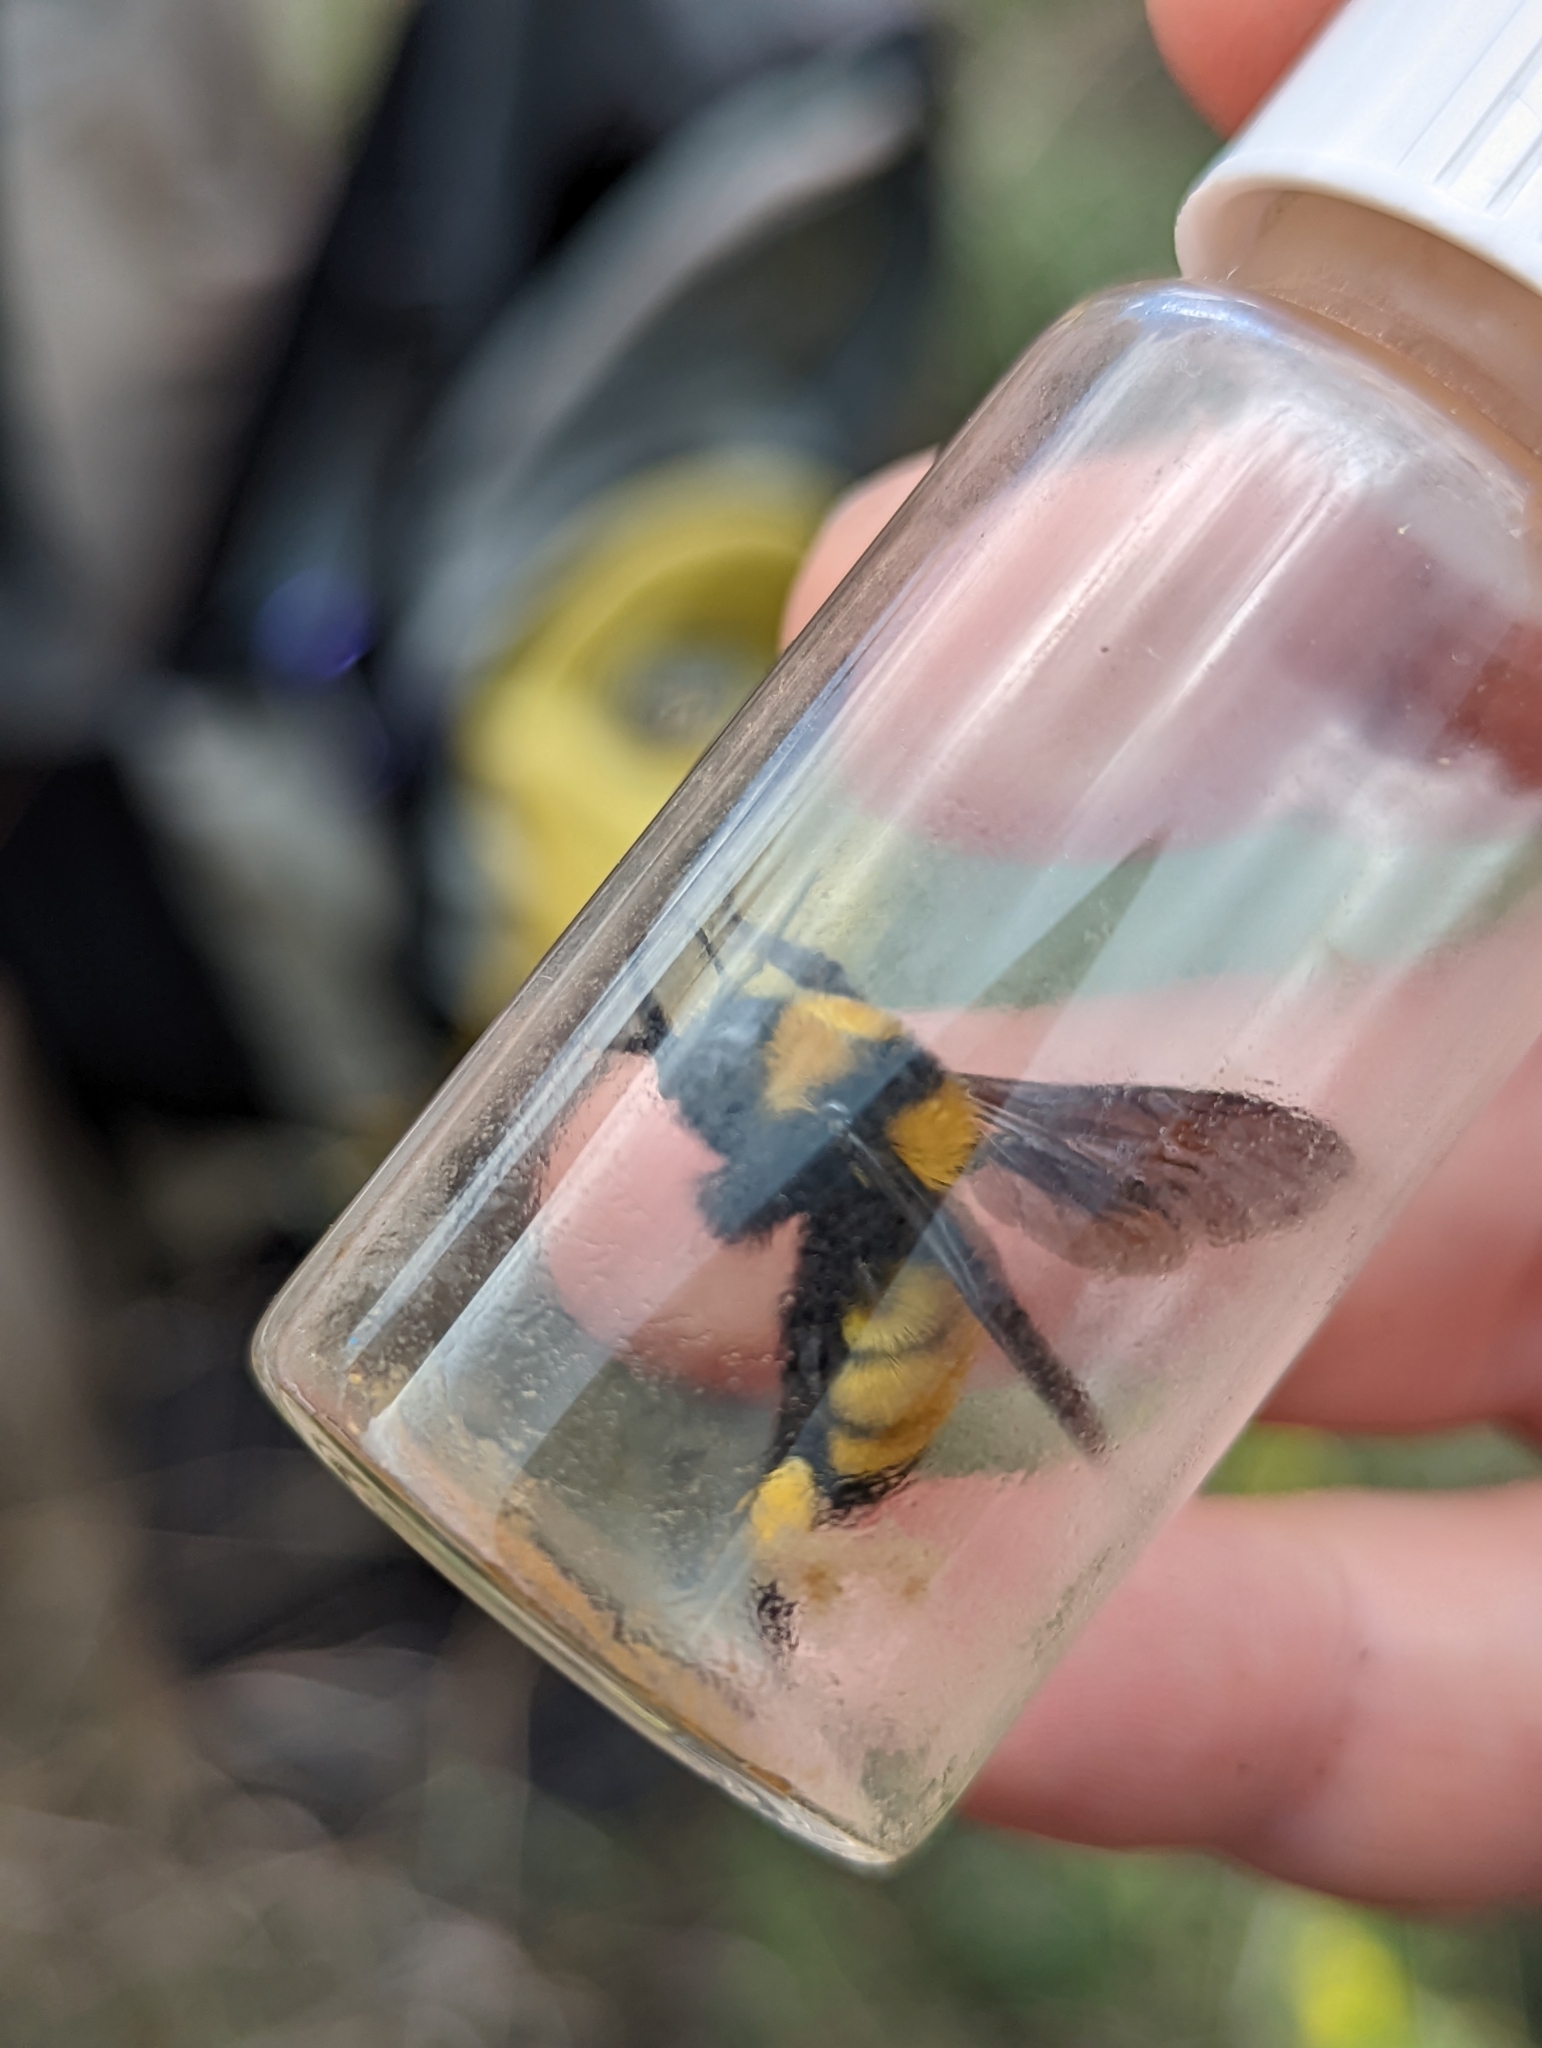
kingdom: Animalia
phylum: Arthropoda
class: Insecta
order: Hymenoptera
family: Apidae
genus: Bombus
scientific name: Bombus sonorus
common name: Sonoran bumble bee
